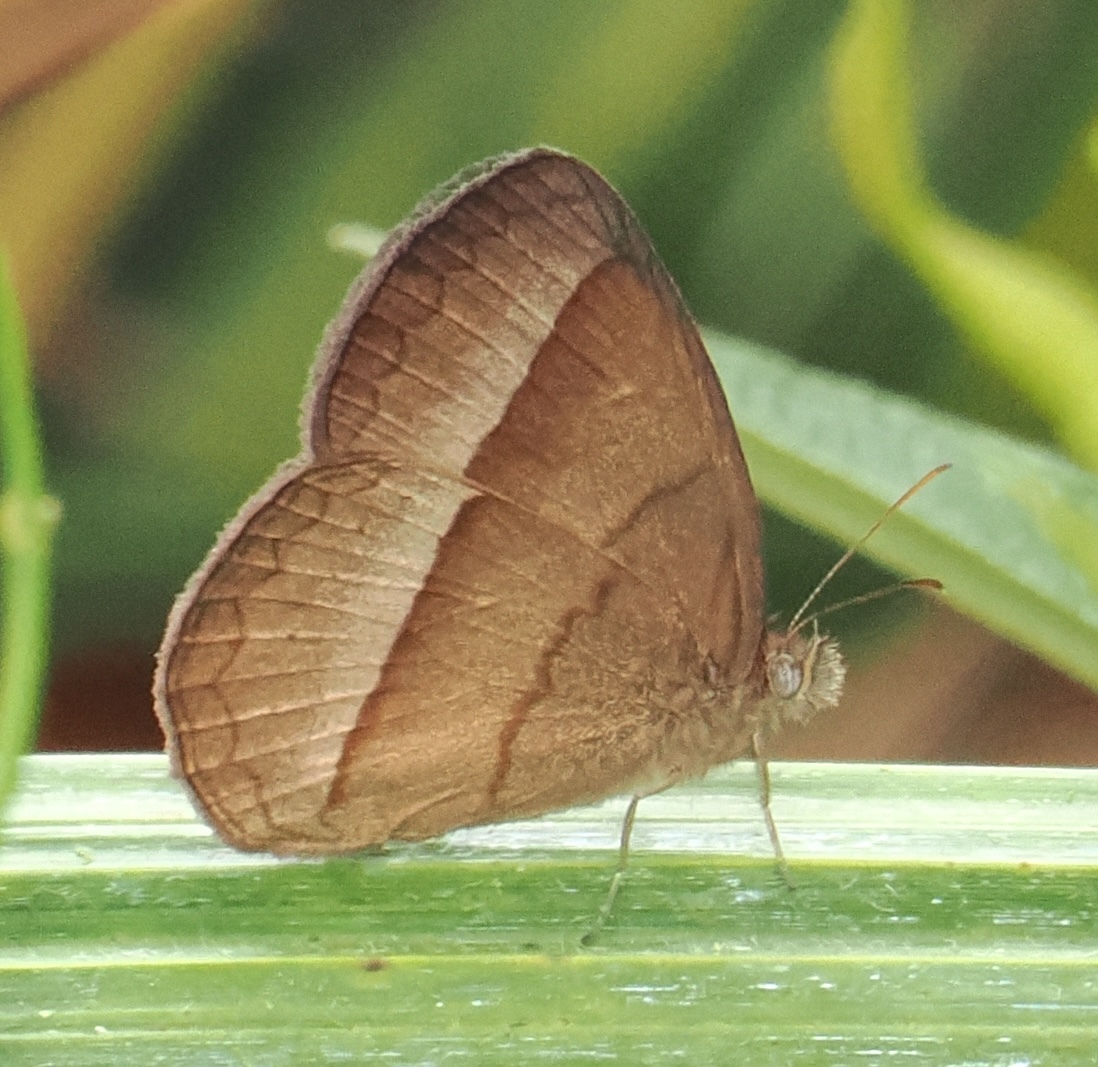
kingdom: Animalia
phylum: Arthropoda
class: Insecta
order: Lepidoptera
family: Nymphalidae
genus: Capronnieria
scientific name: Capronnieria galesus
